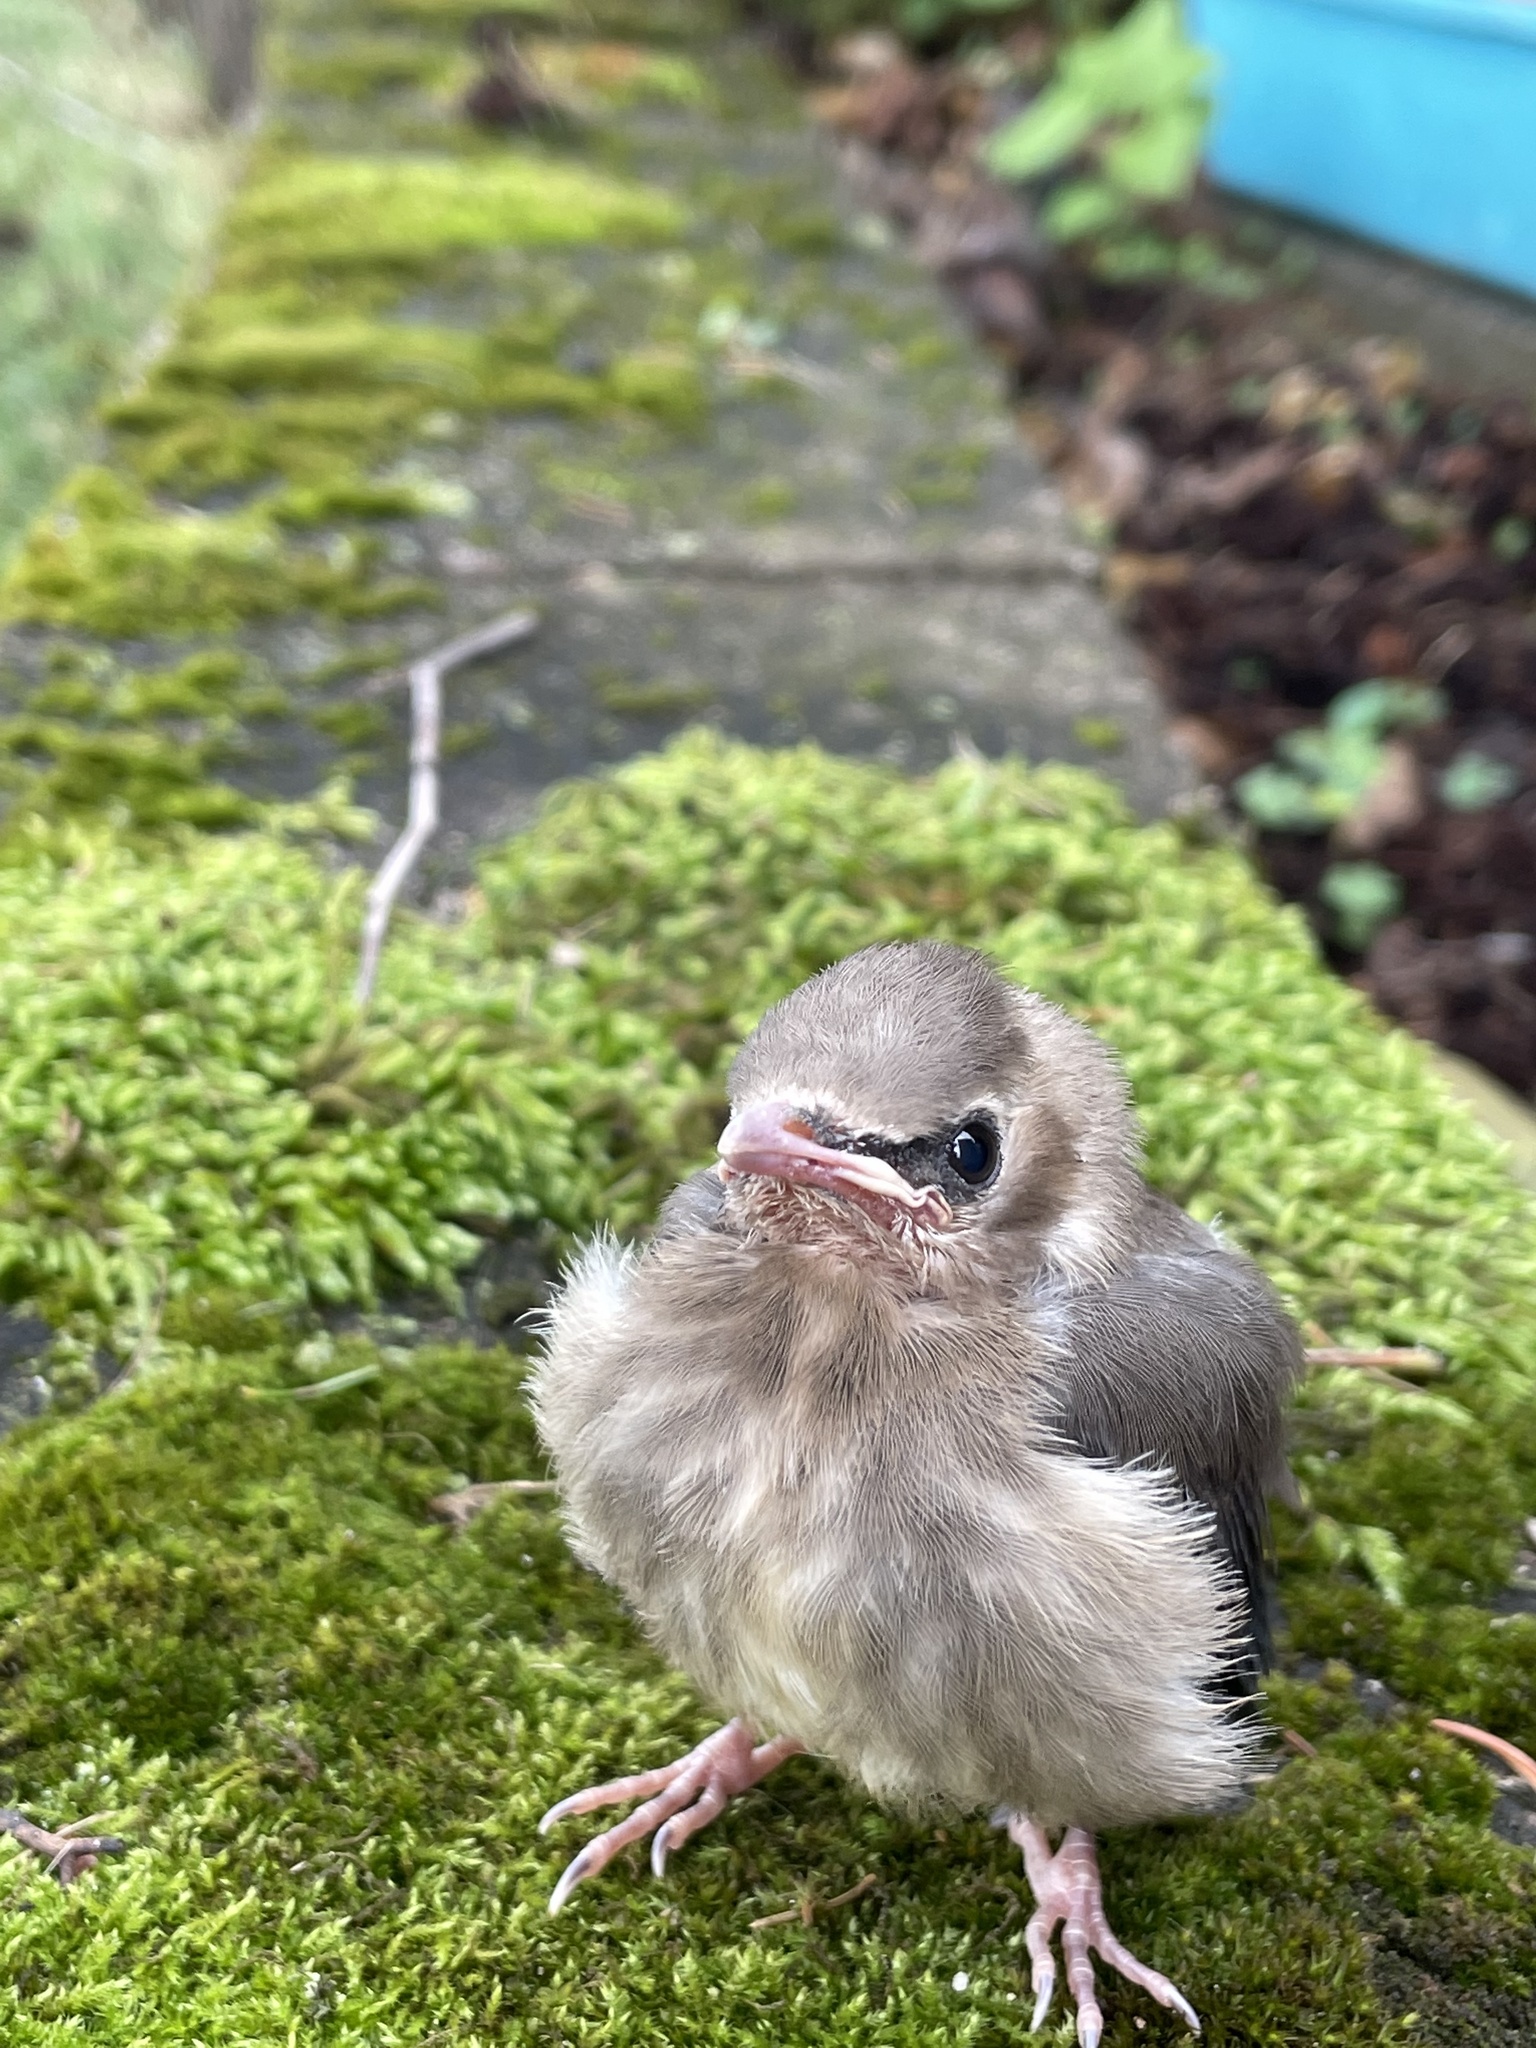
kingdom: Animalia
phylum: Chordata
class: Aves
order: Passeriformes
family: Bombycillidae
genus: Bombycilla
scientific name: Bombycilla cedrorum
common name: Cedar waxwing
